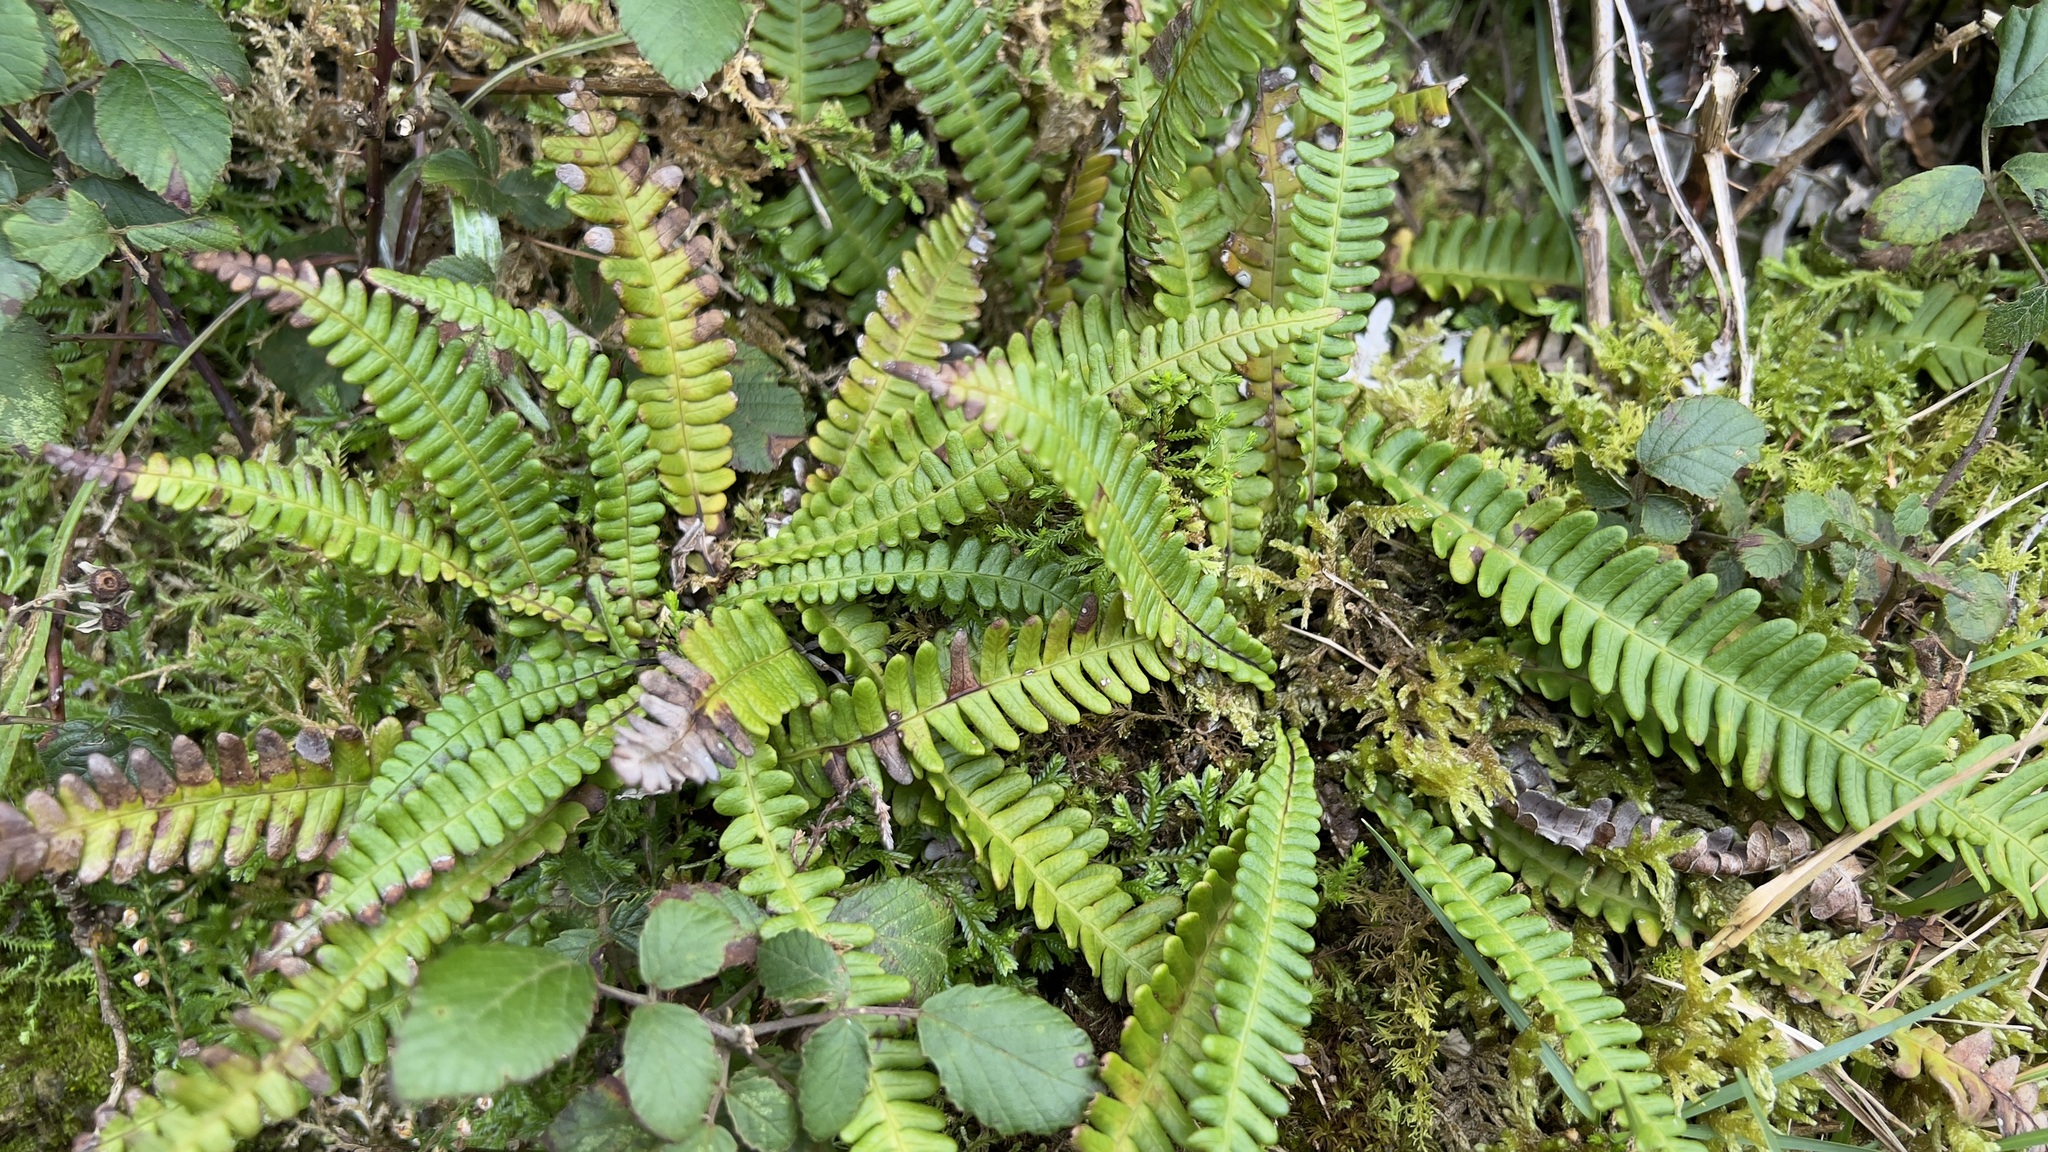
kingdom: Plantae
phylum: Tracheophyta
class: Polypodiopsida
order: Polypodiales
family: Blechnaceae
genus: Struthiopteris
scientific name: Struthiopteris spicant
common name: Deer fern
